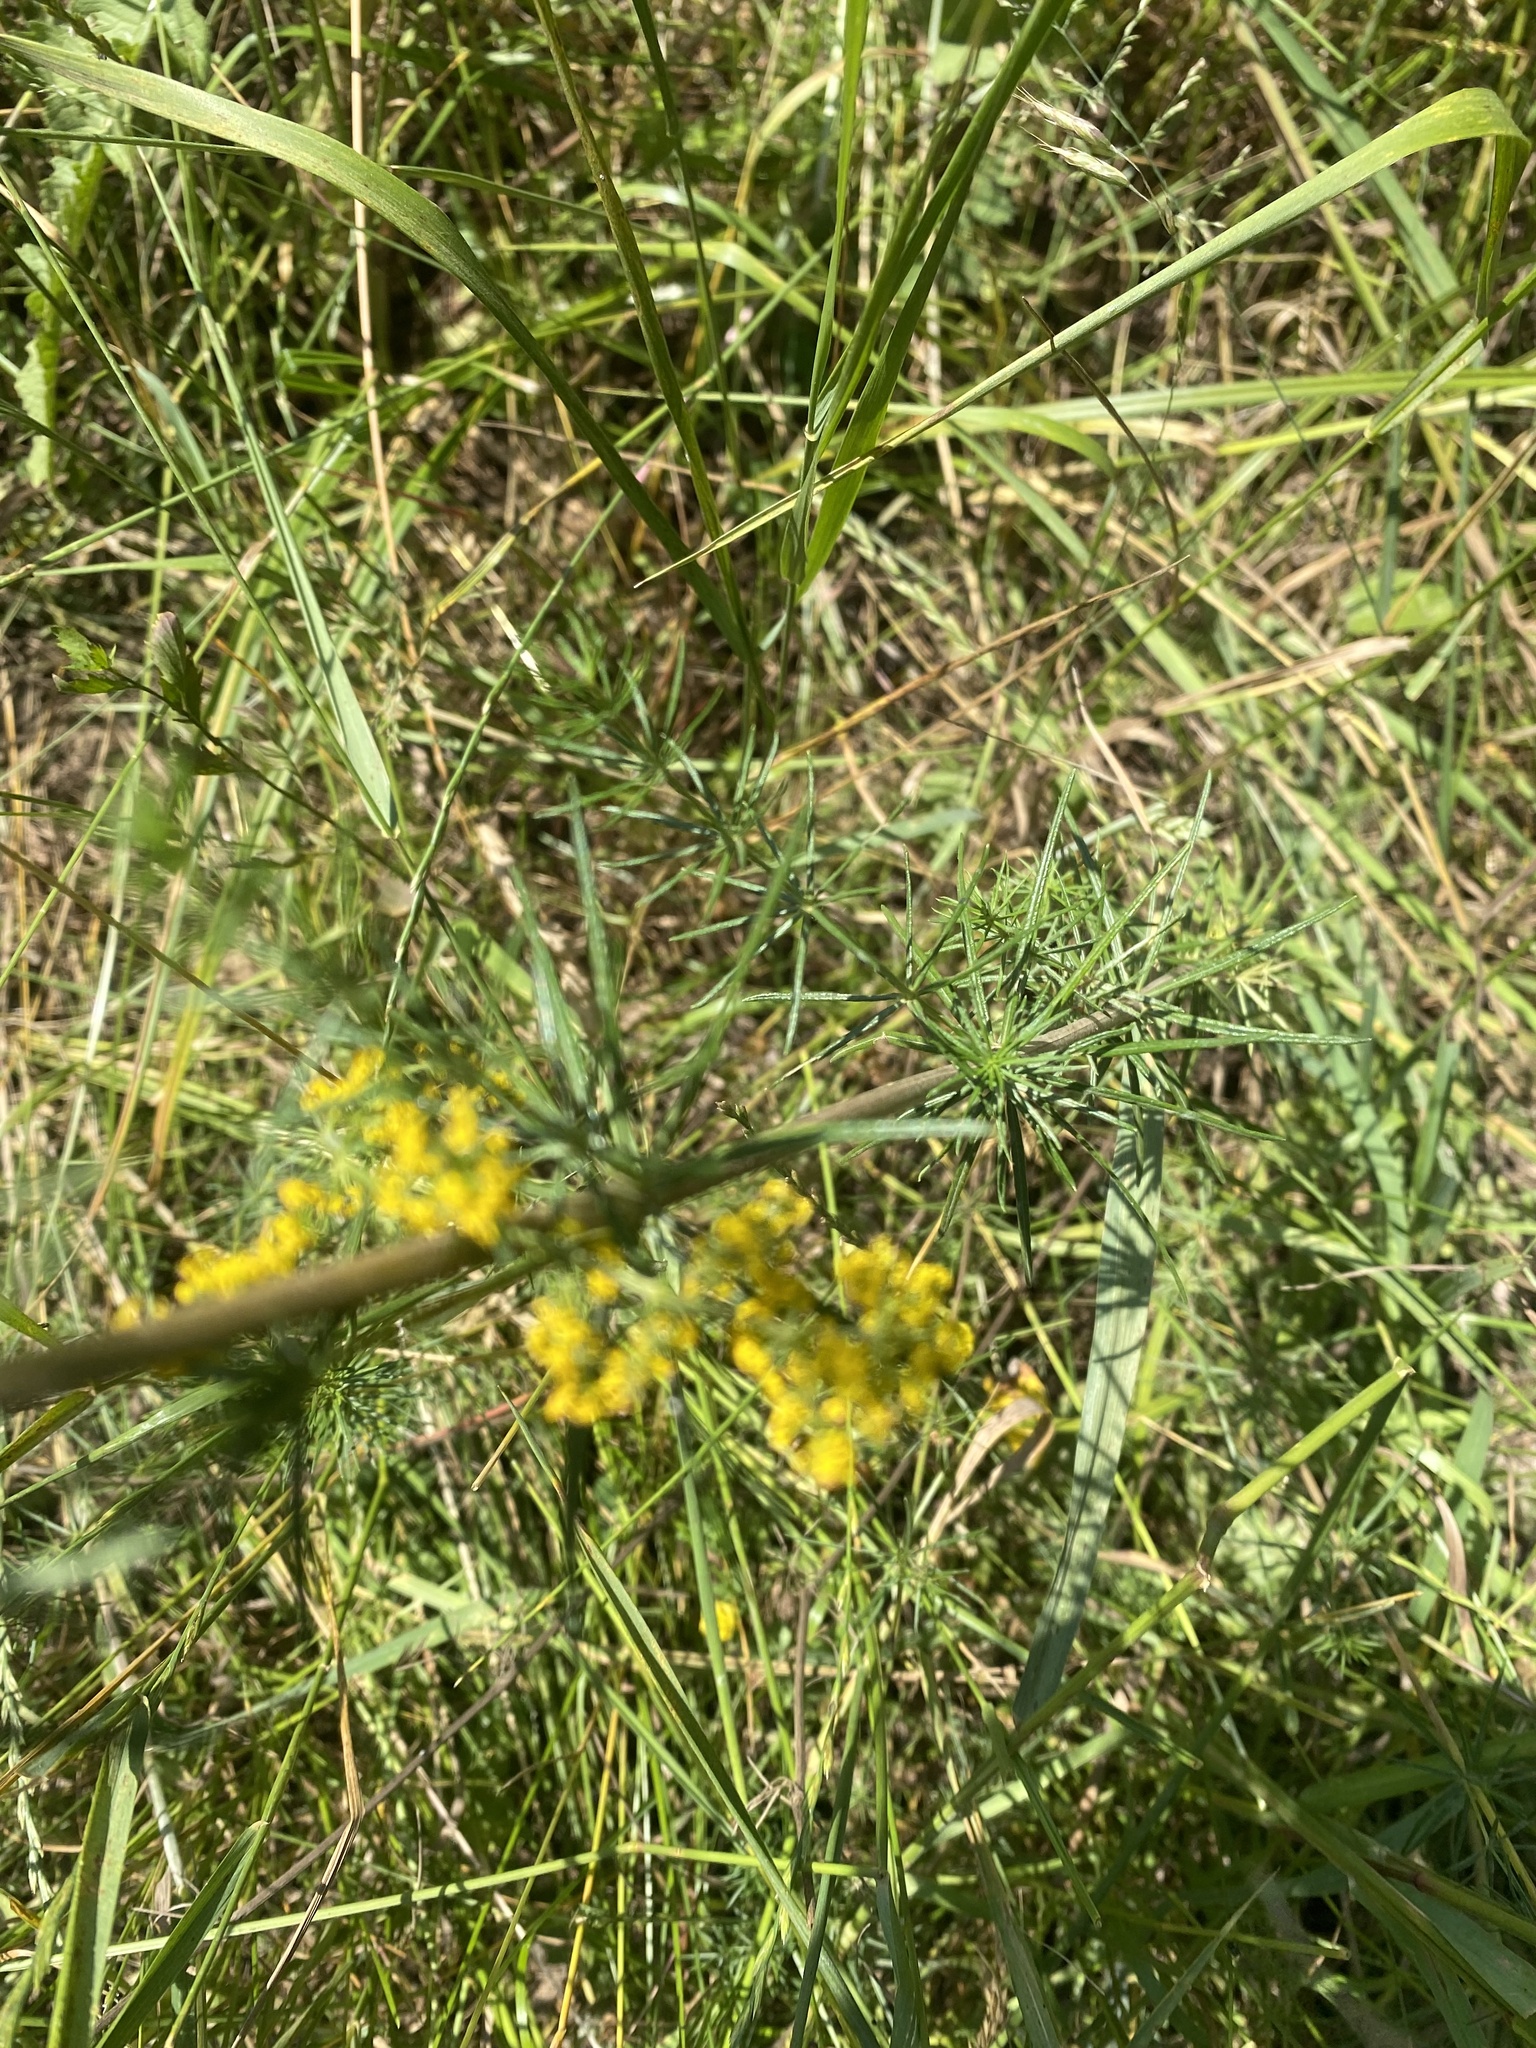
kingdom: Plantae
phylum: Tracheophyta
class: Magnoliopsida
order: Gentianales
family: Rubiaceae
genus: Galium
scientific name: Galium verum
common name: Lady's bedstraw
